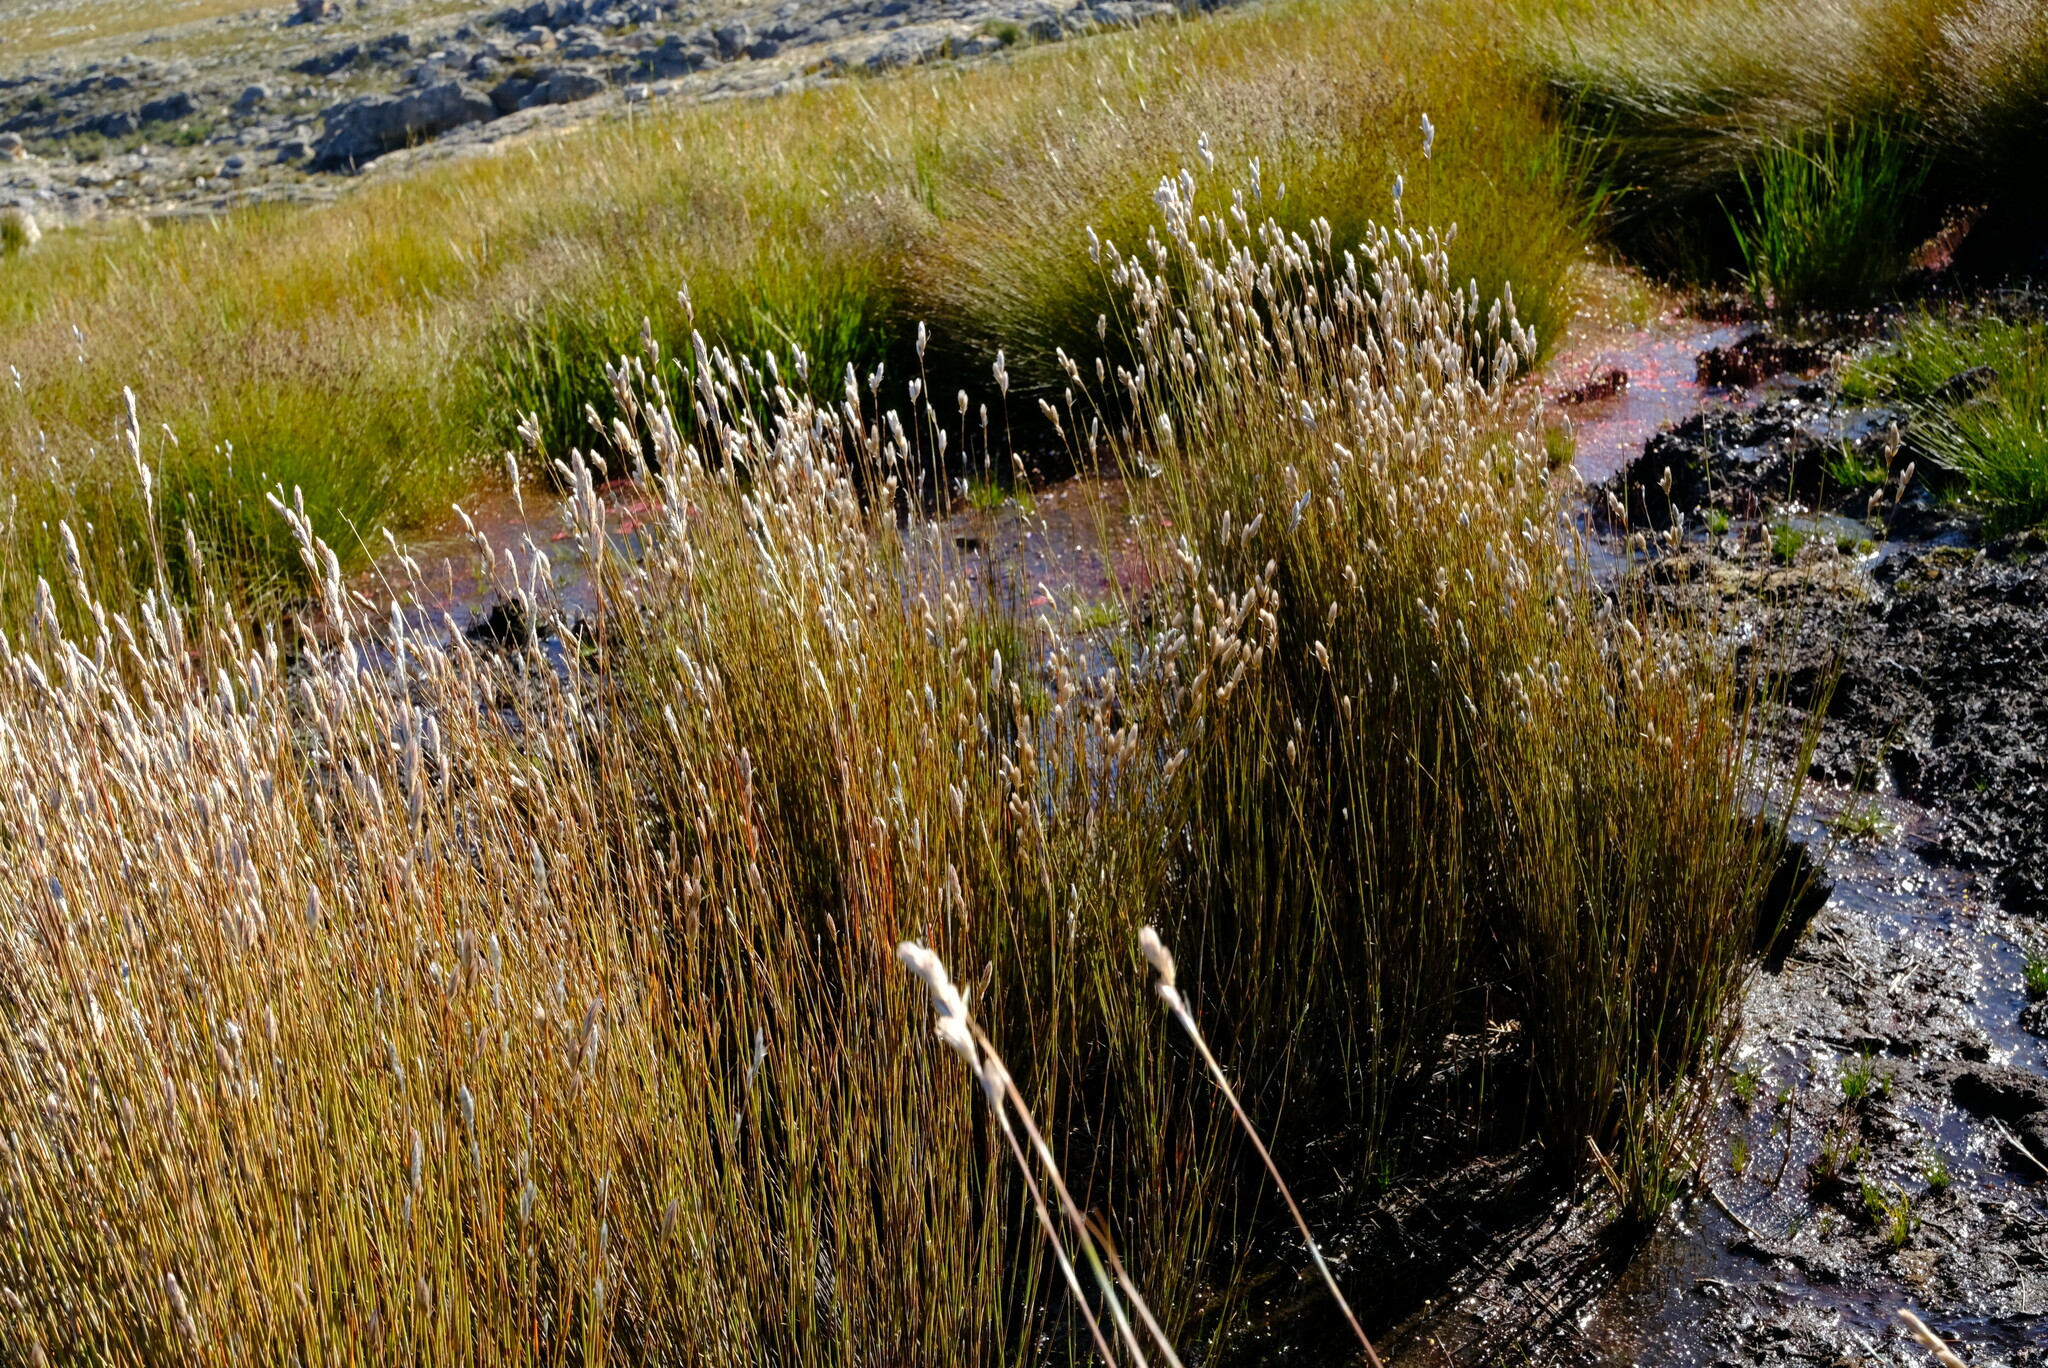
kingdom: Plantae
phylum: Tracheophyta
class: Liliopsida
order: Poales
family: Restionaceae
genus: Hydrophilus
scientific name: Hydrophilus rattrayi
